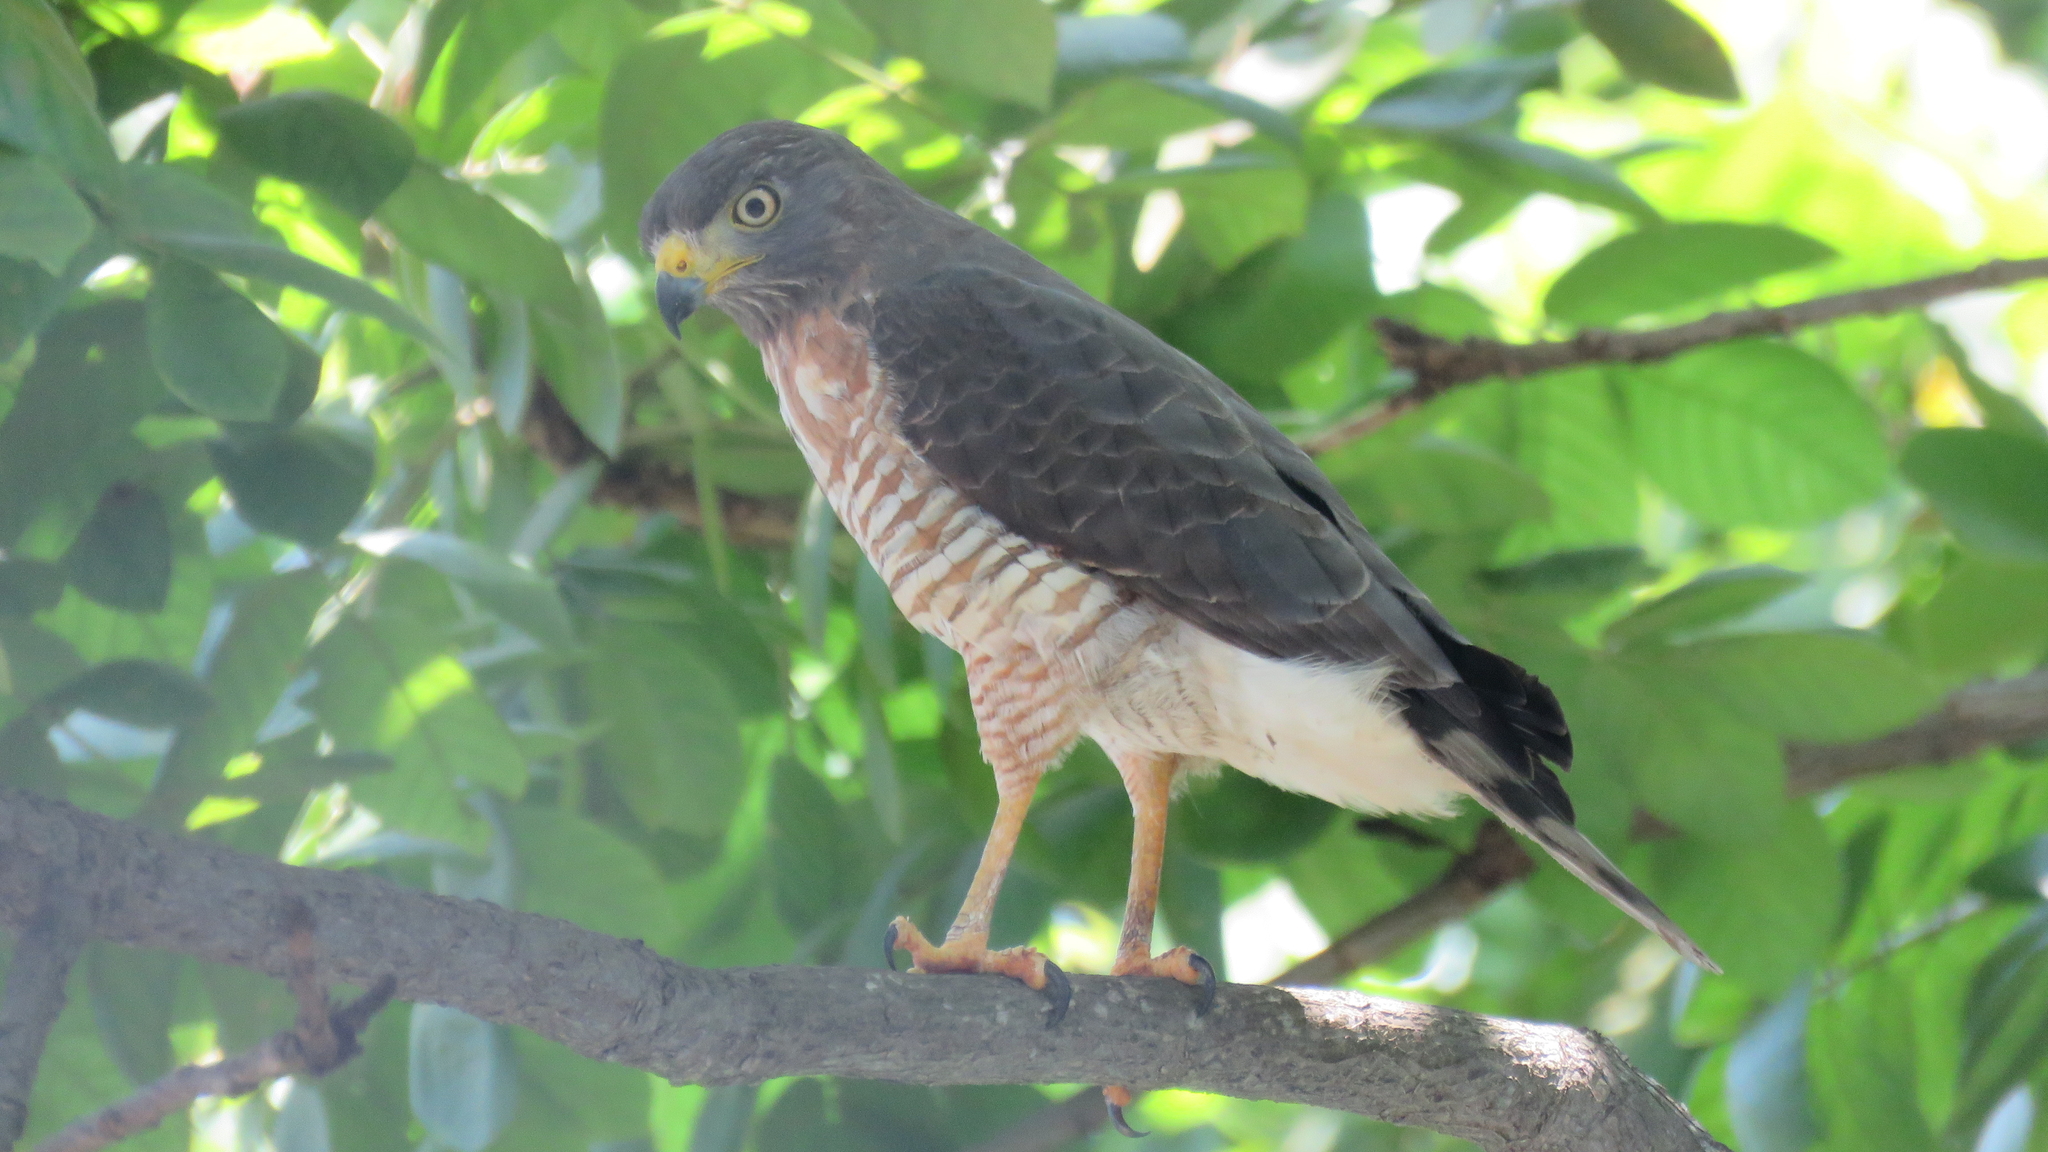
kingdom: Animalia
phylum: Chordata
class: Aves
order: Accipitriformes
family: Accipitridae
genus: Rupornis
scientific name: Rupornis magnirostris
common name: Roadside hawk
